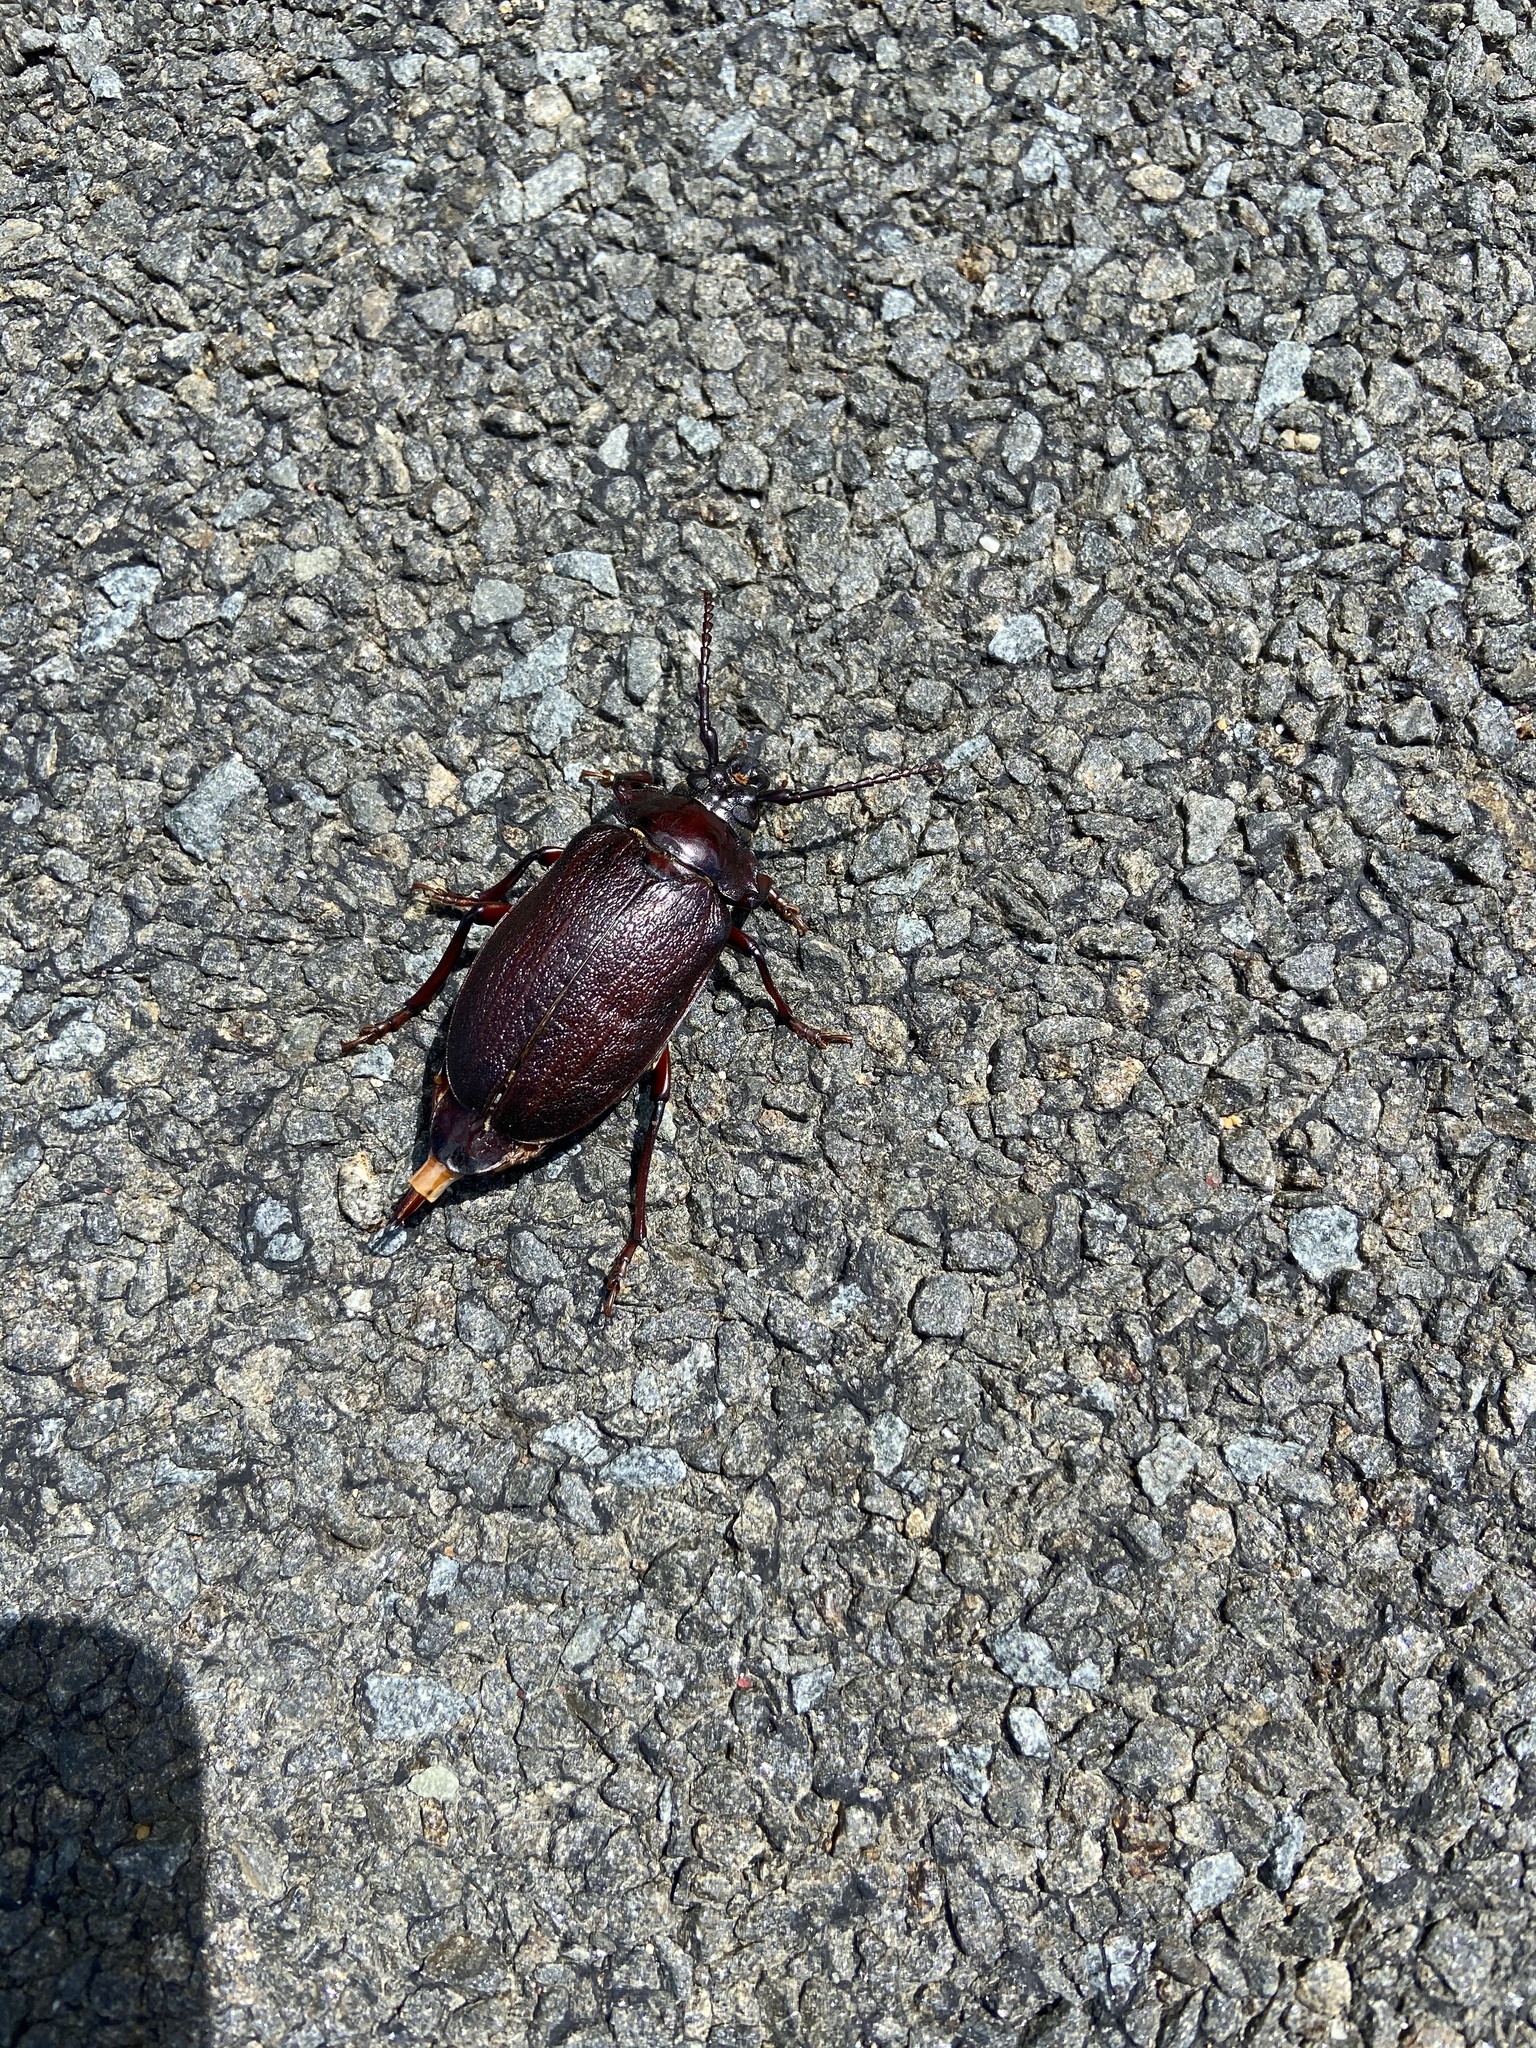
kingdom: Animalia
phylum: Arthropoda
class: Insecta
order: Coleoptera
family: Cerambycidae
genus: Prionus
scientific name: Prionus laticollis
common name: Broad necked prionus
